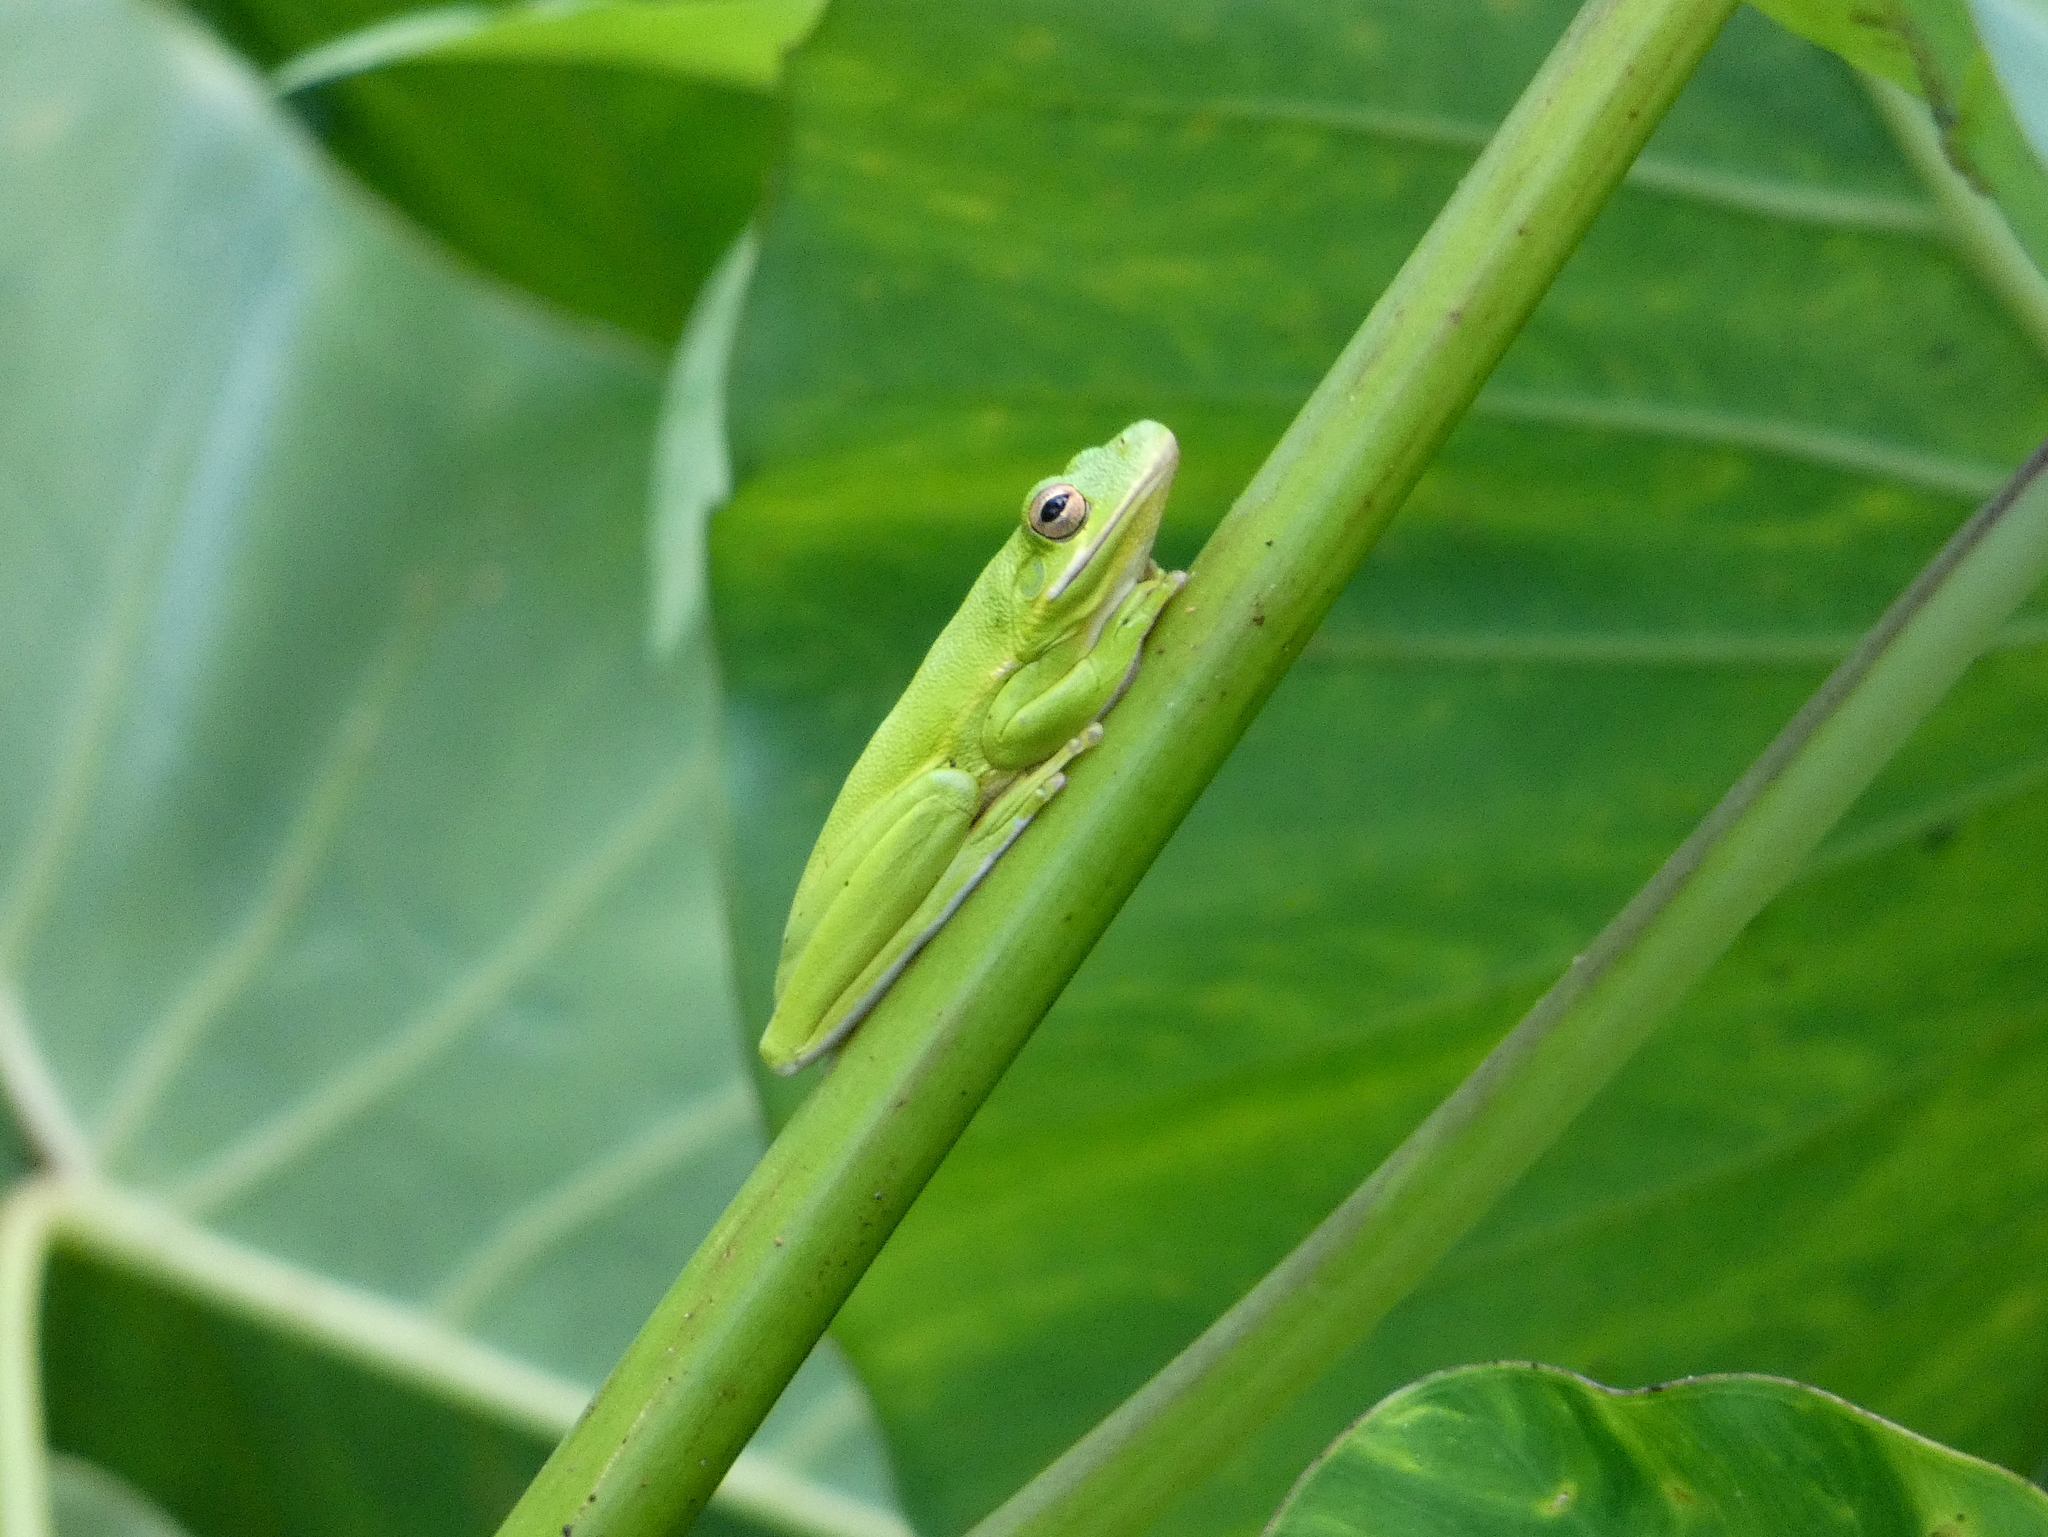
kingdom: Animalia
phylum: Chordata
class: Amphibia
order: Anura
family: Hylidae
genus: Dryophytes
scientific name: Dryophytes cinereus
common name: Green treefrog
